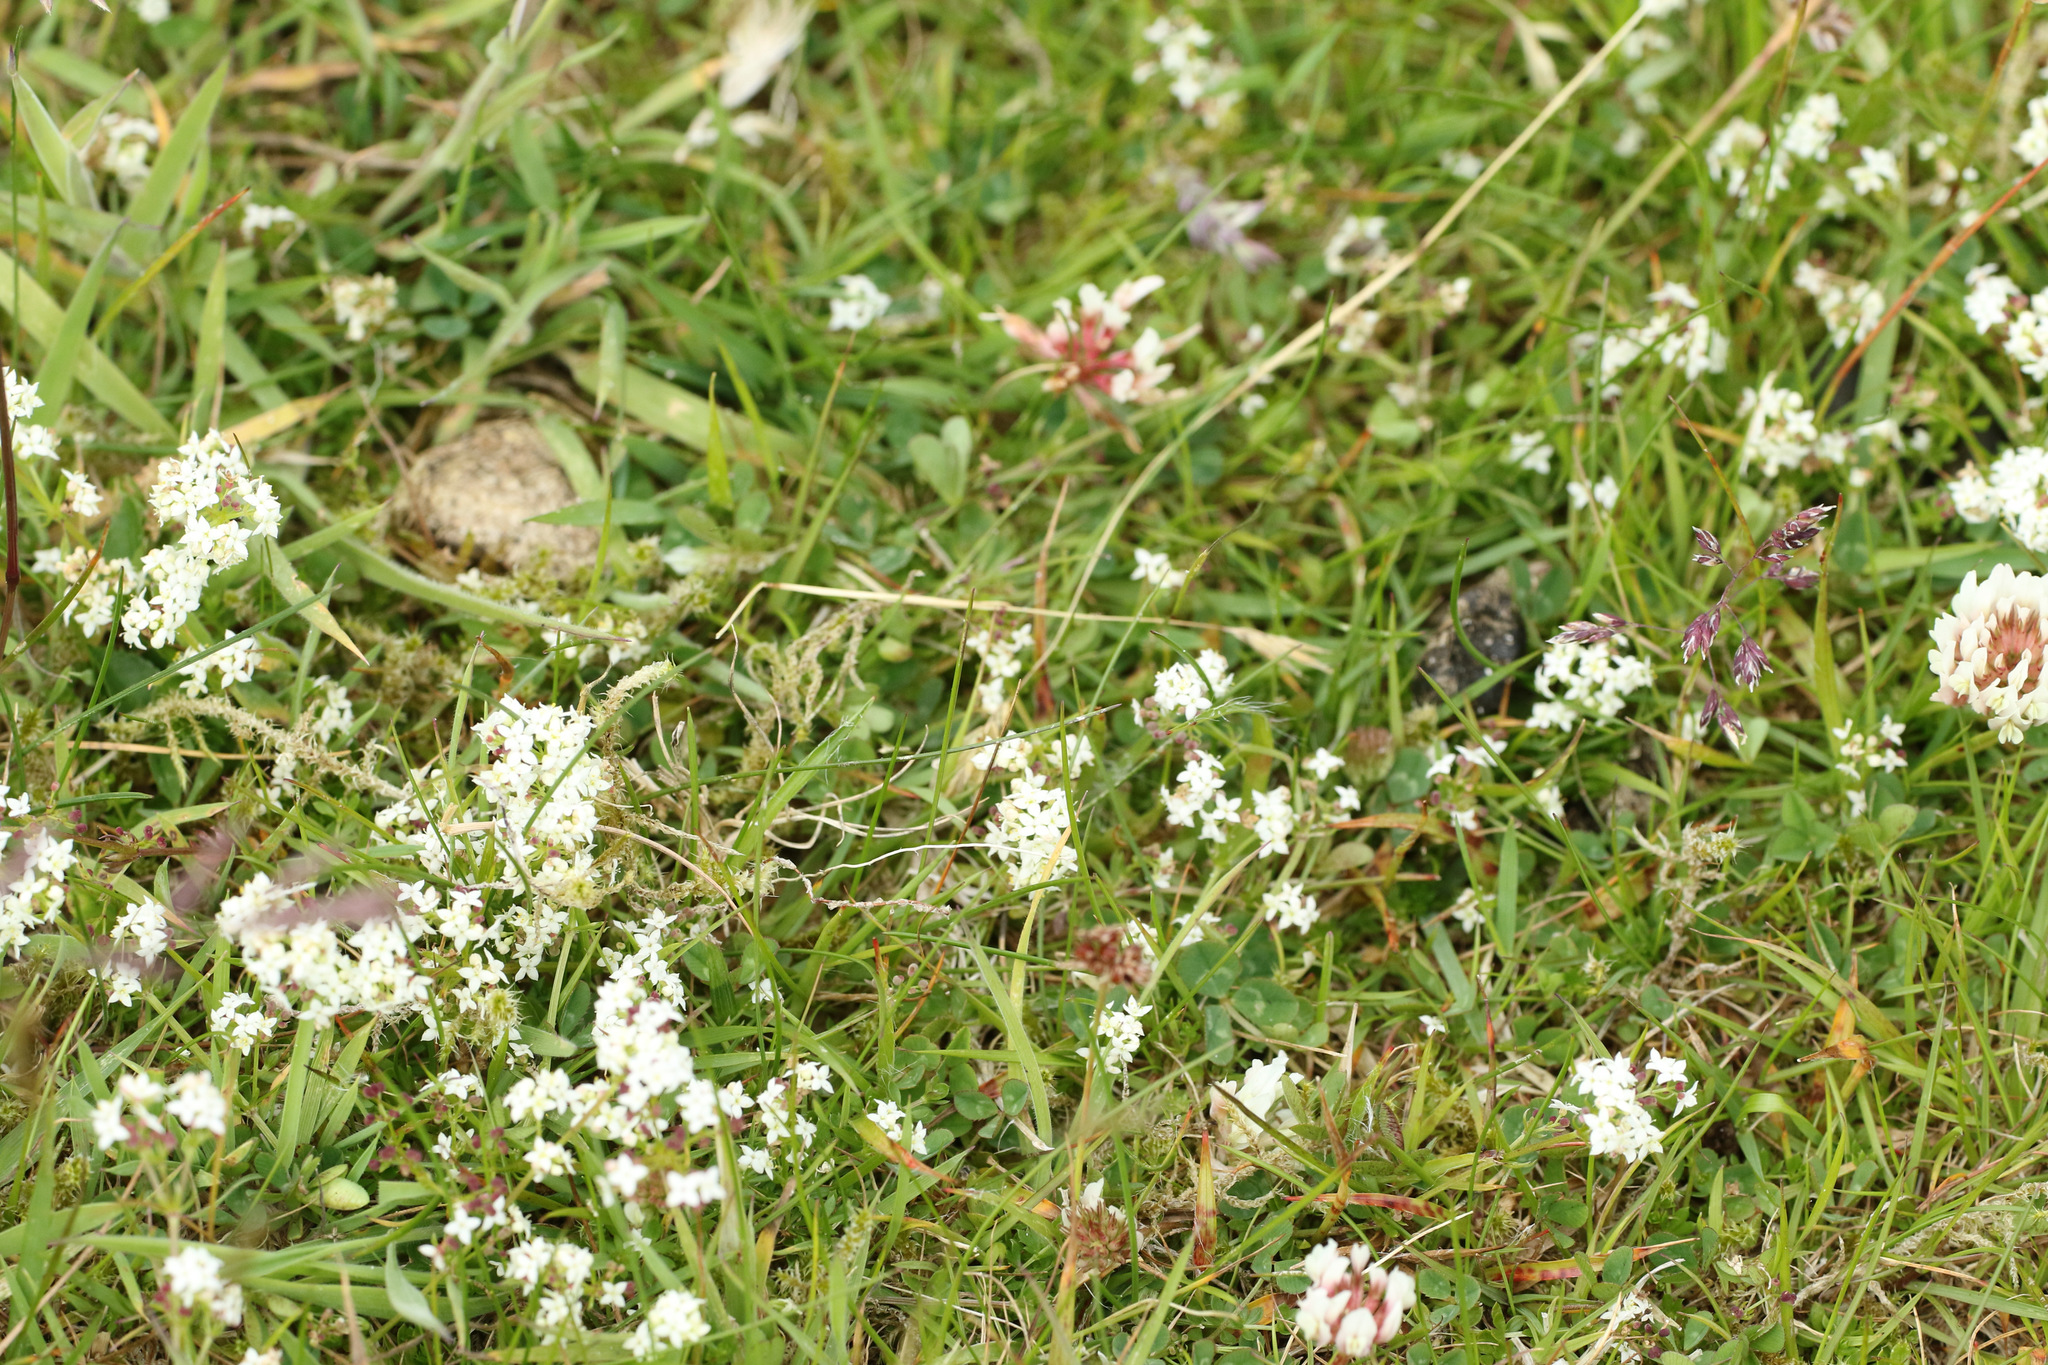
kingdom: Plantae
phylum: Tracheophyta
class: Magnoliopsida
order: Gentianales
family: Rubiaceae
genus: Galium
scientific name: Galium saxatile
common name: Heath bedstraw
